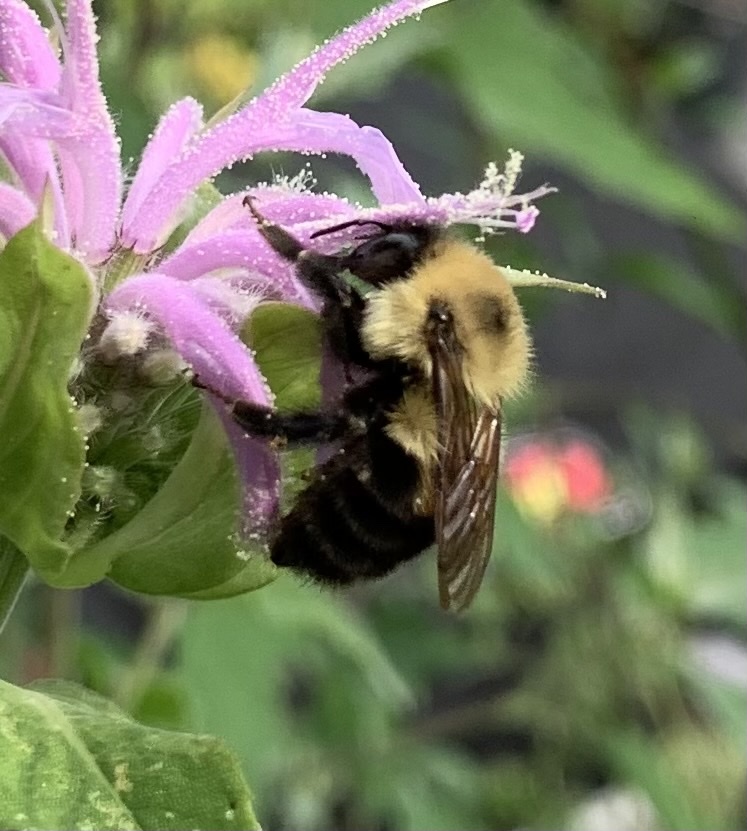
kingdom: Animalia
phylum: Arthropoda
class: Insecta
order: Hymenoptera
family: Apidae
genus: Bombus
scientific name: Bombus bimaculatus
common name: Two-spotted bumble bee
